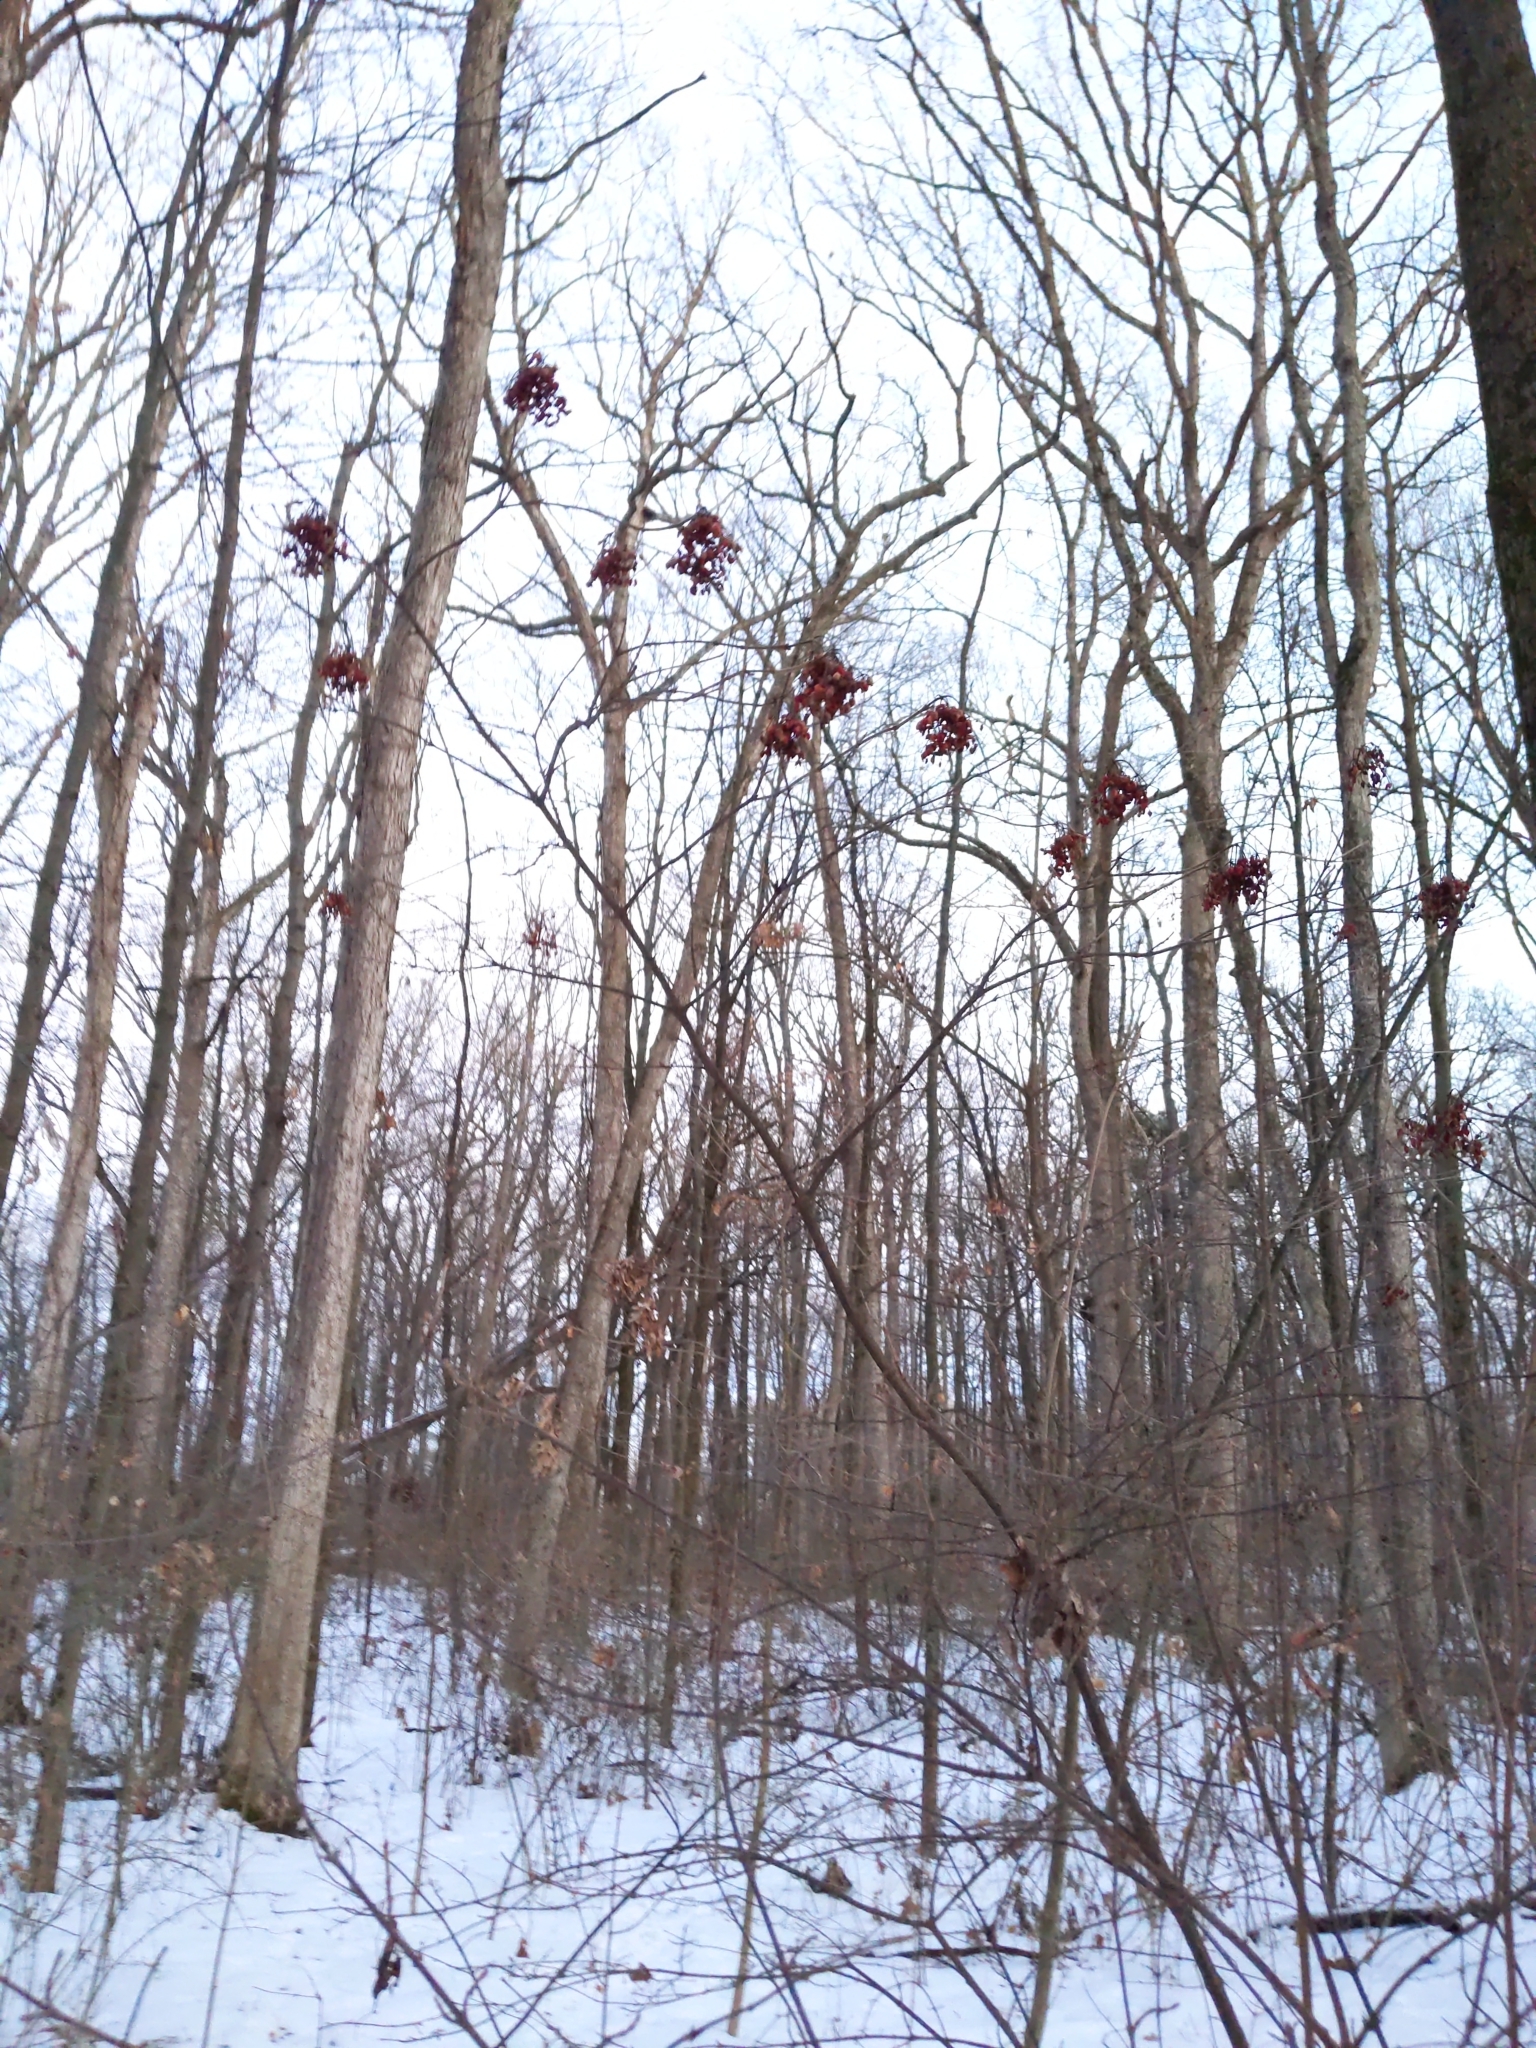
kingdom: Plantae
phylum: Tracheophyta
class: Magnoliopsida
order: Dipsacales
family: Viburnaceae
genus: Viburnum
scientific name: Viburnum dilatatum
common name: Linden arrowwood
